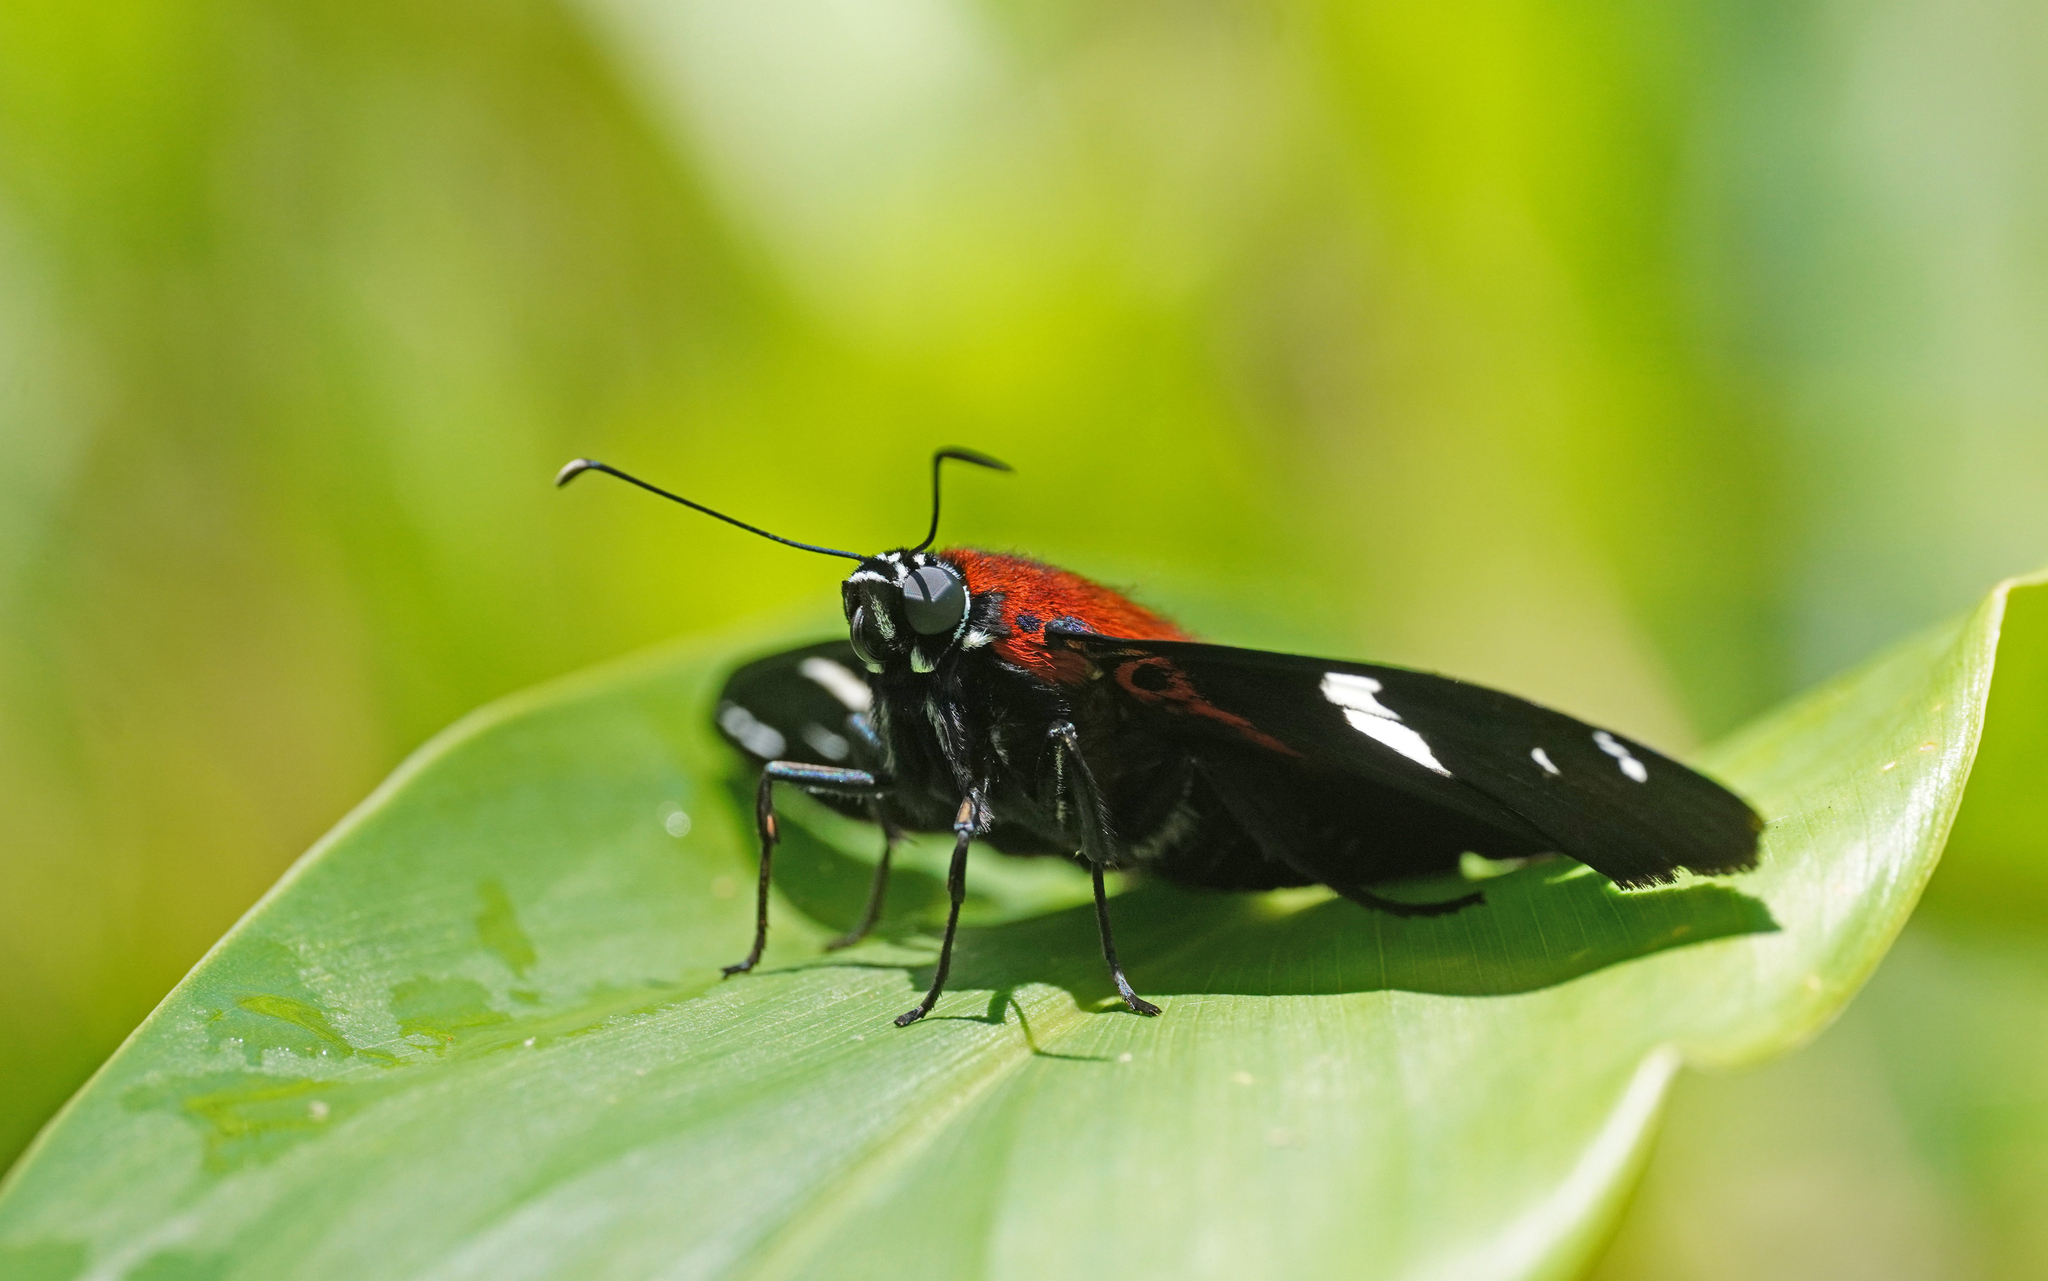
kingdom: Animalia
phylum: Arthropoda
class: Insecta
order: Lepidoptera
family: Hesperiidae
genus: Pyrrhopyge
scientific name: Pyrrhopyge Yanguna spatiosa
